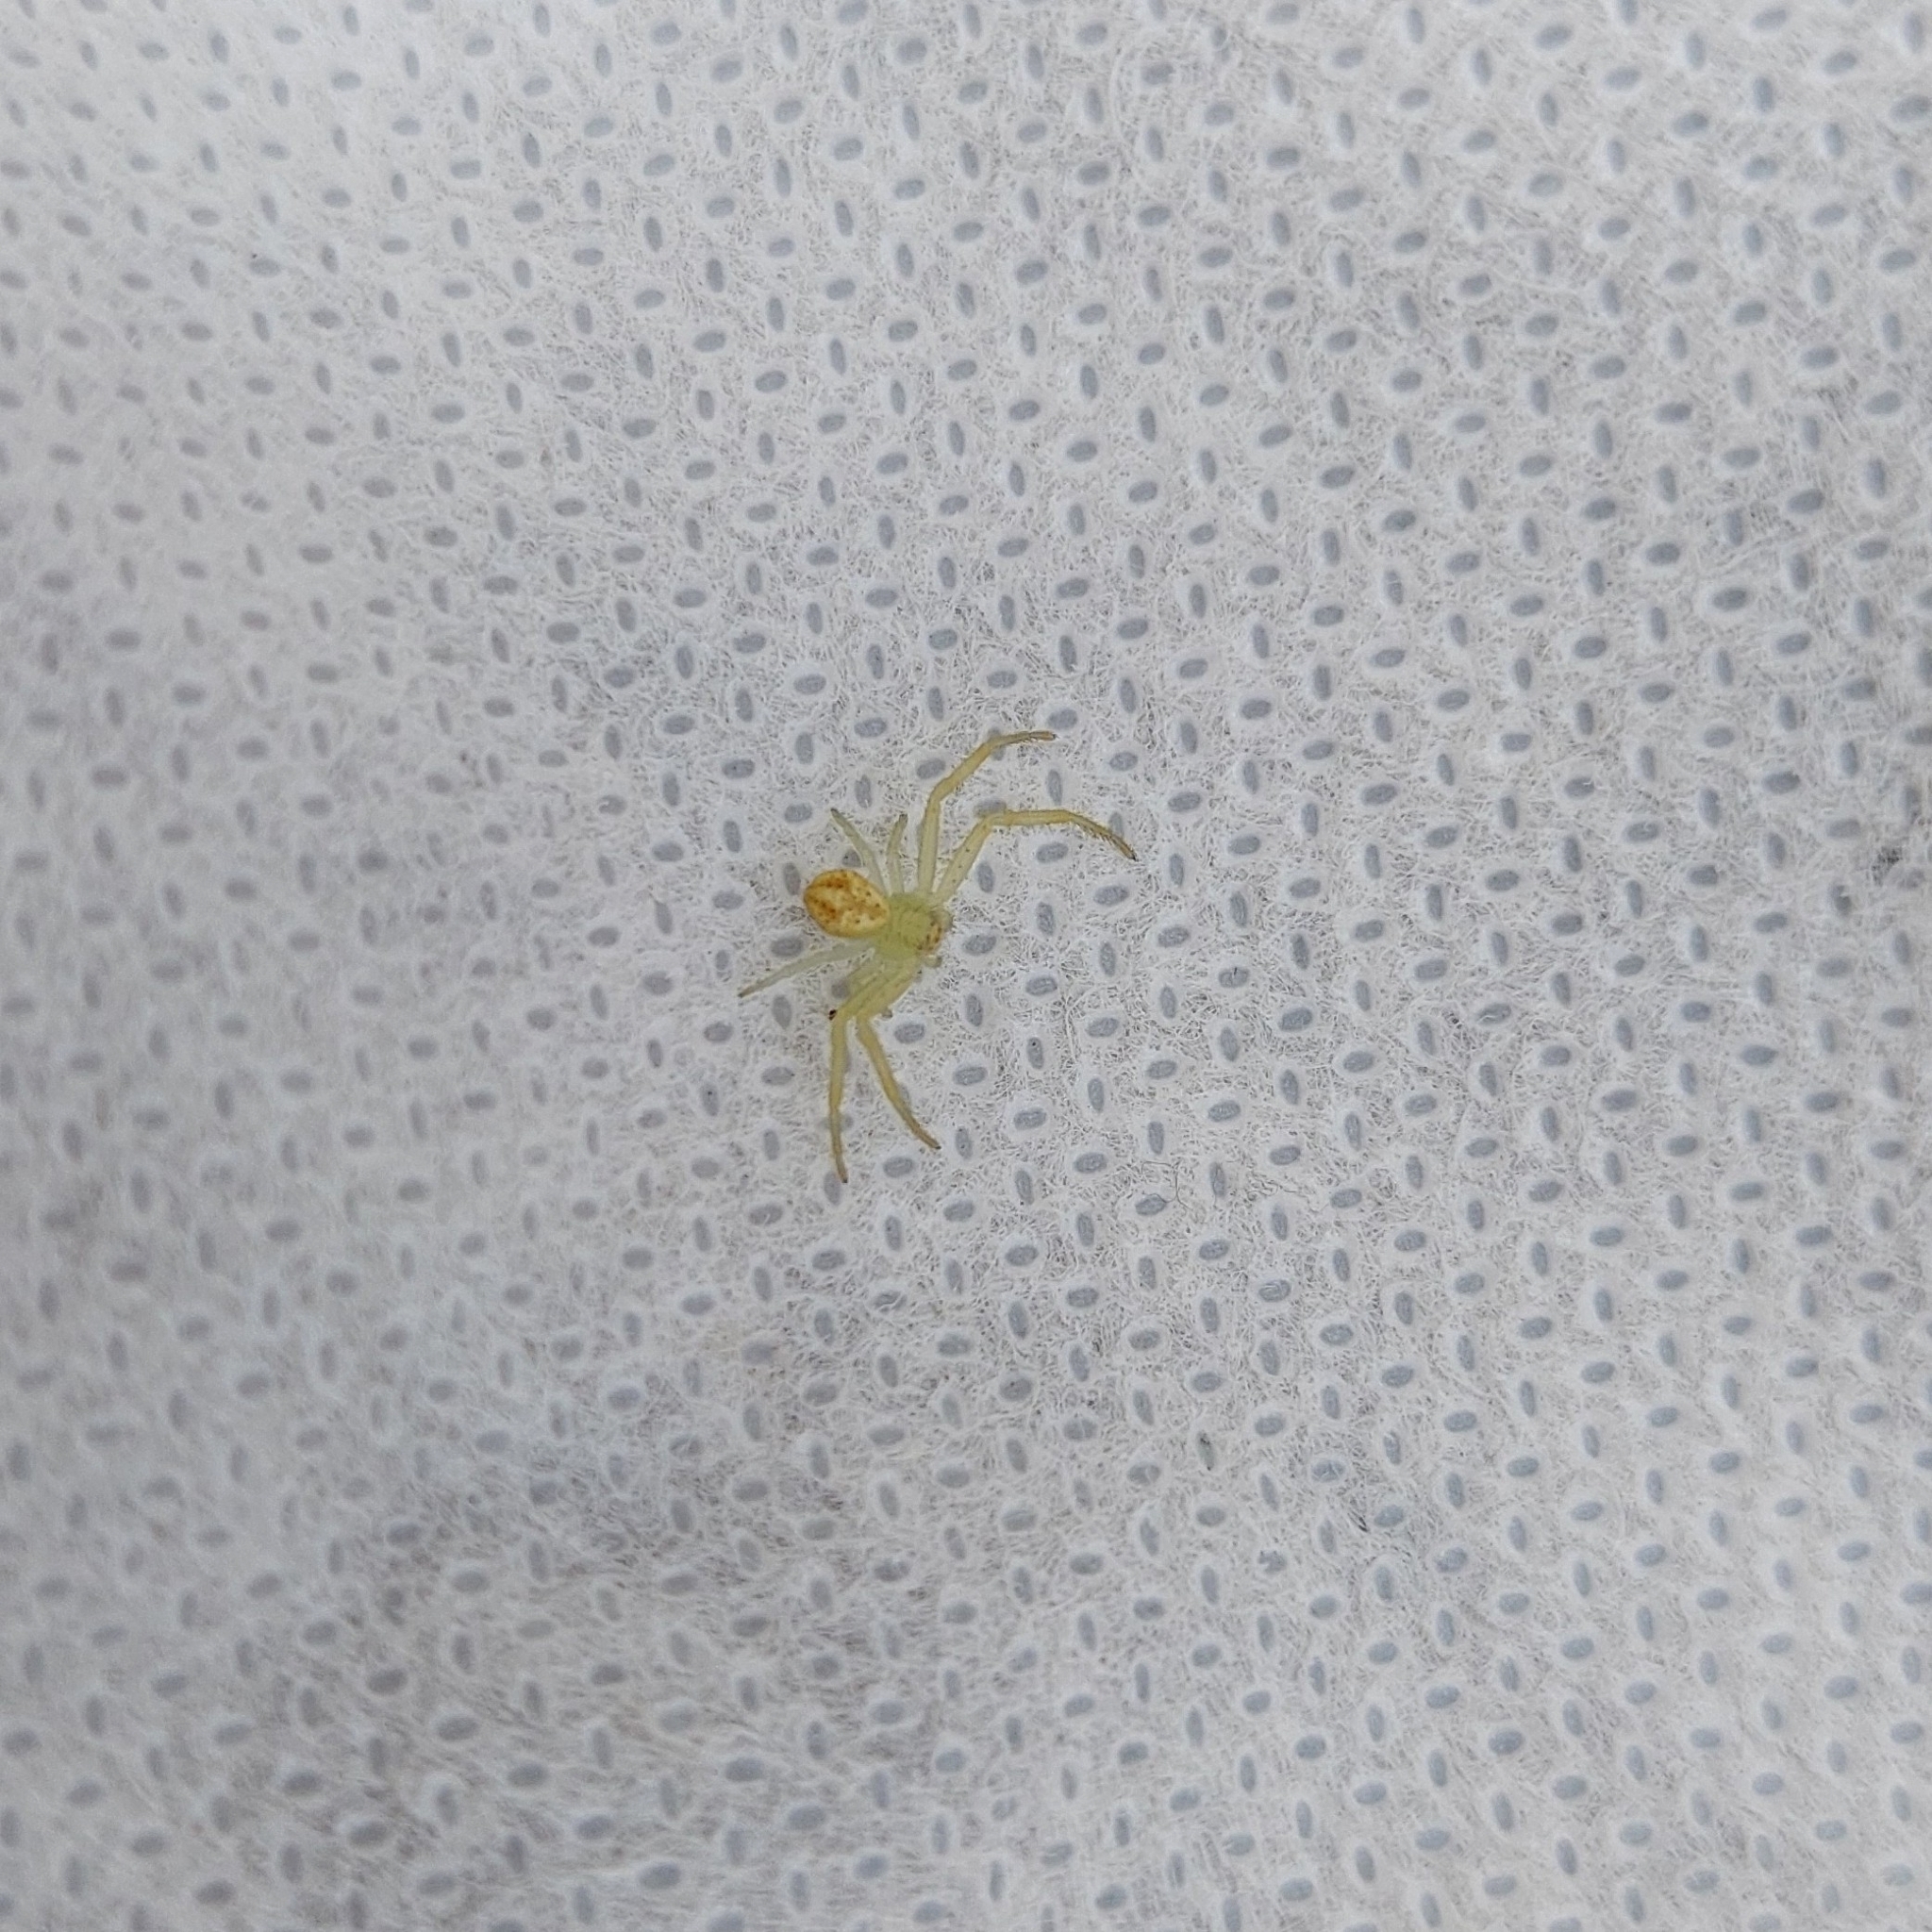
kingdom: Animalia
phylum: Arthropoda
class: Arachnida
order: Araneae
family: Thomisidae
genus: Misumenops
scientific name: Misumenops
